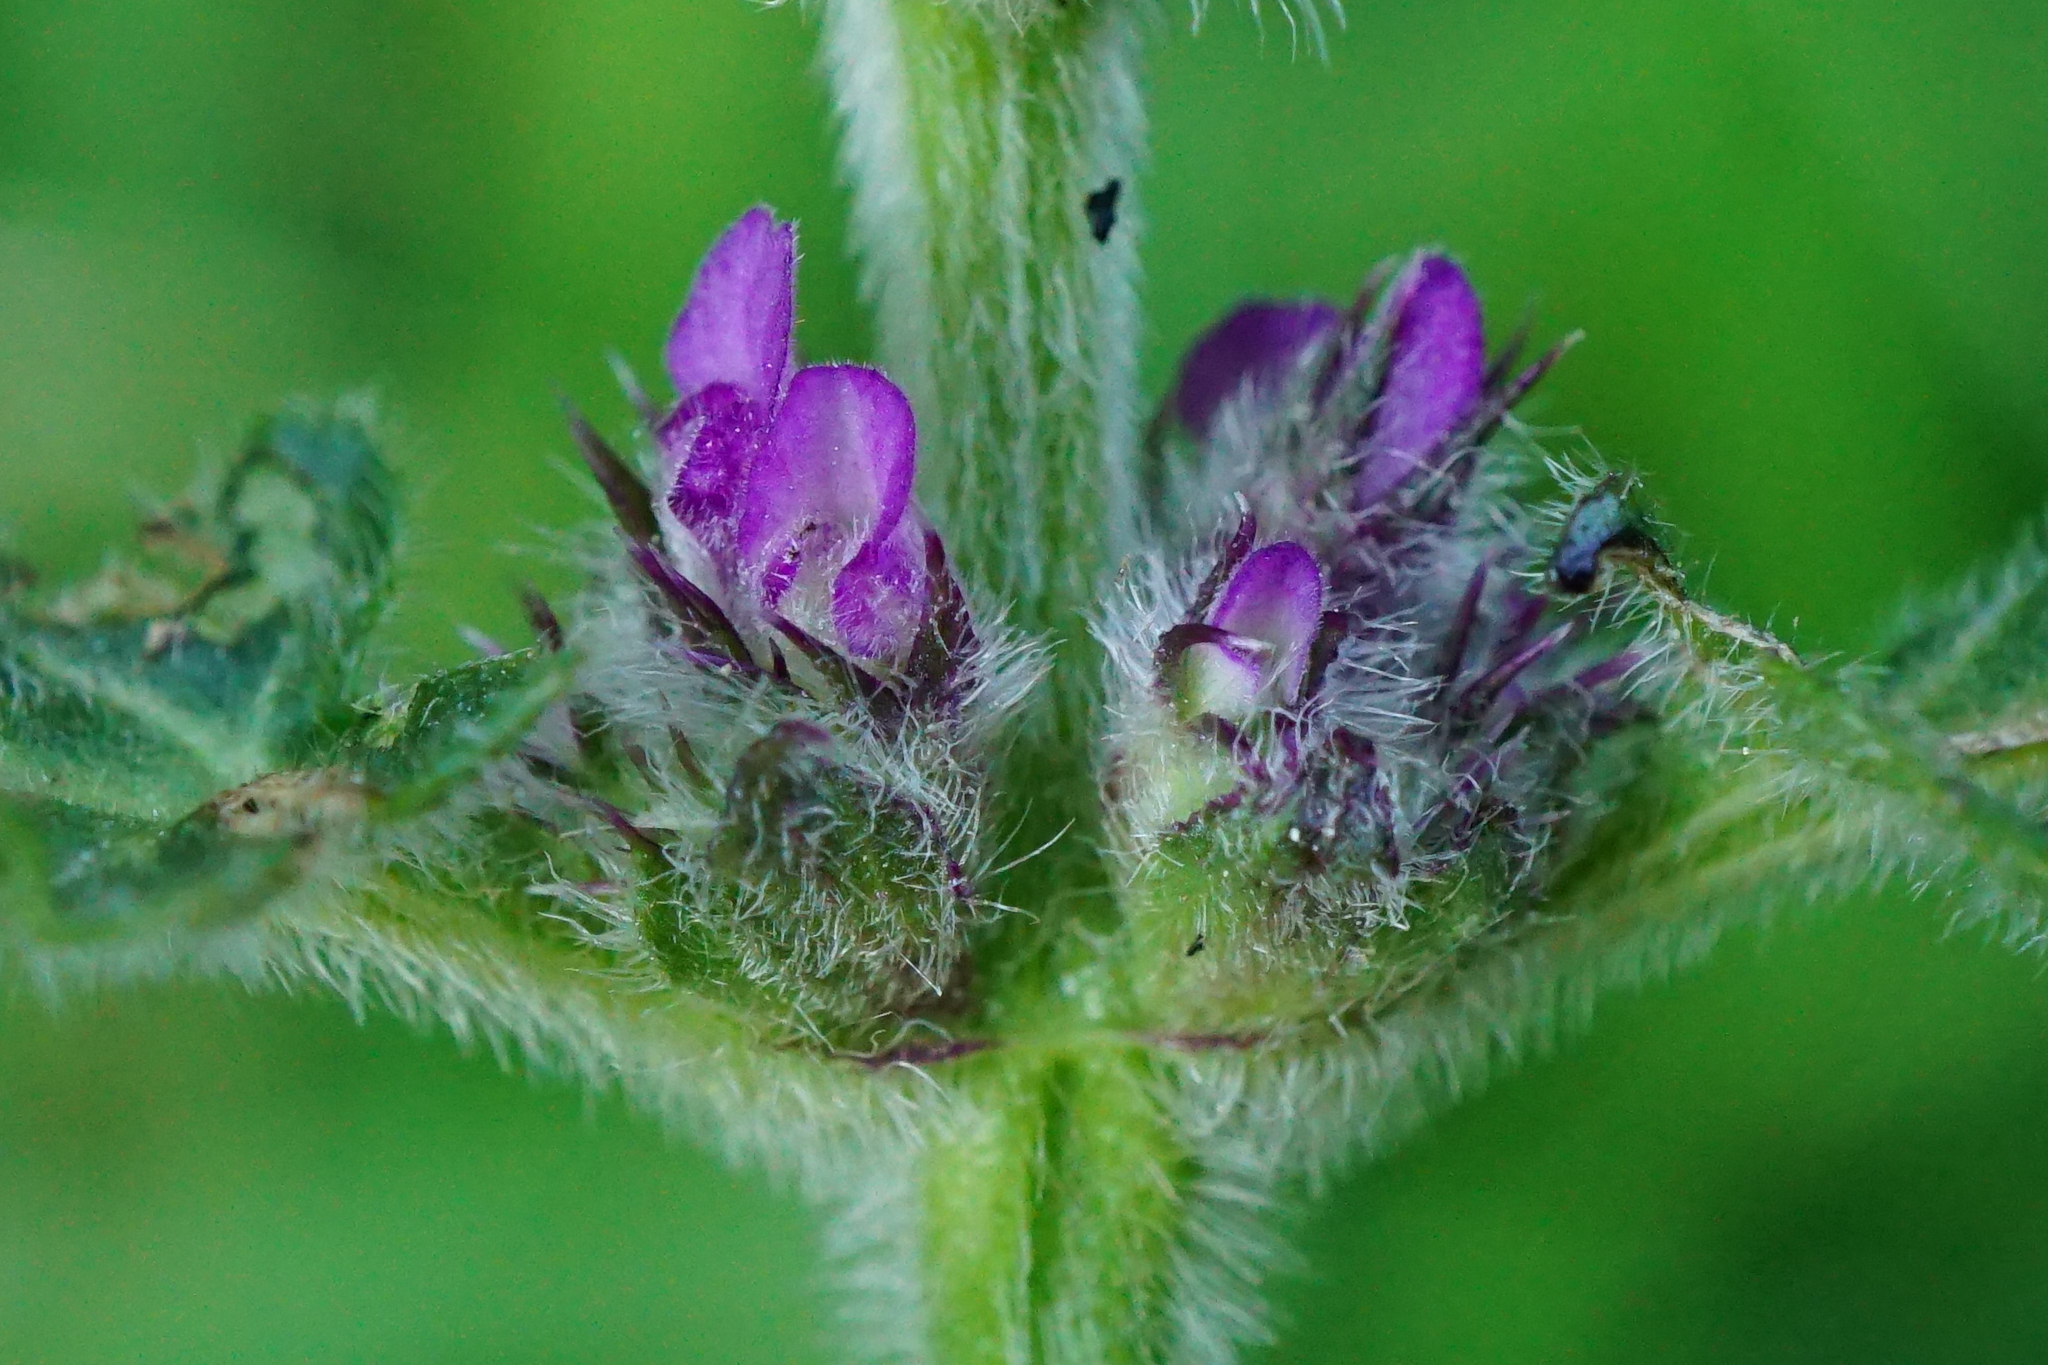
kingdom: Plantae
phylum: Tracheophyta
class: Magnoliopsida
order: Lamiales
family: Lamiaceae
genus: Betonica
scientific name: Betonica officinalis
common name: Bishop's-wort
